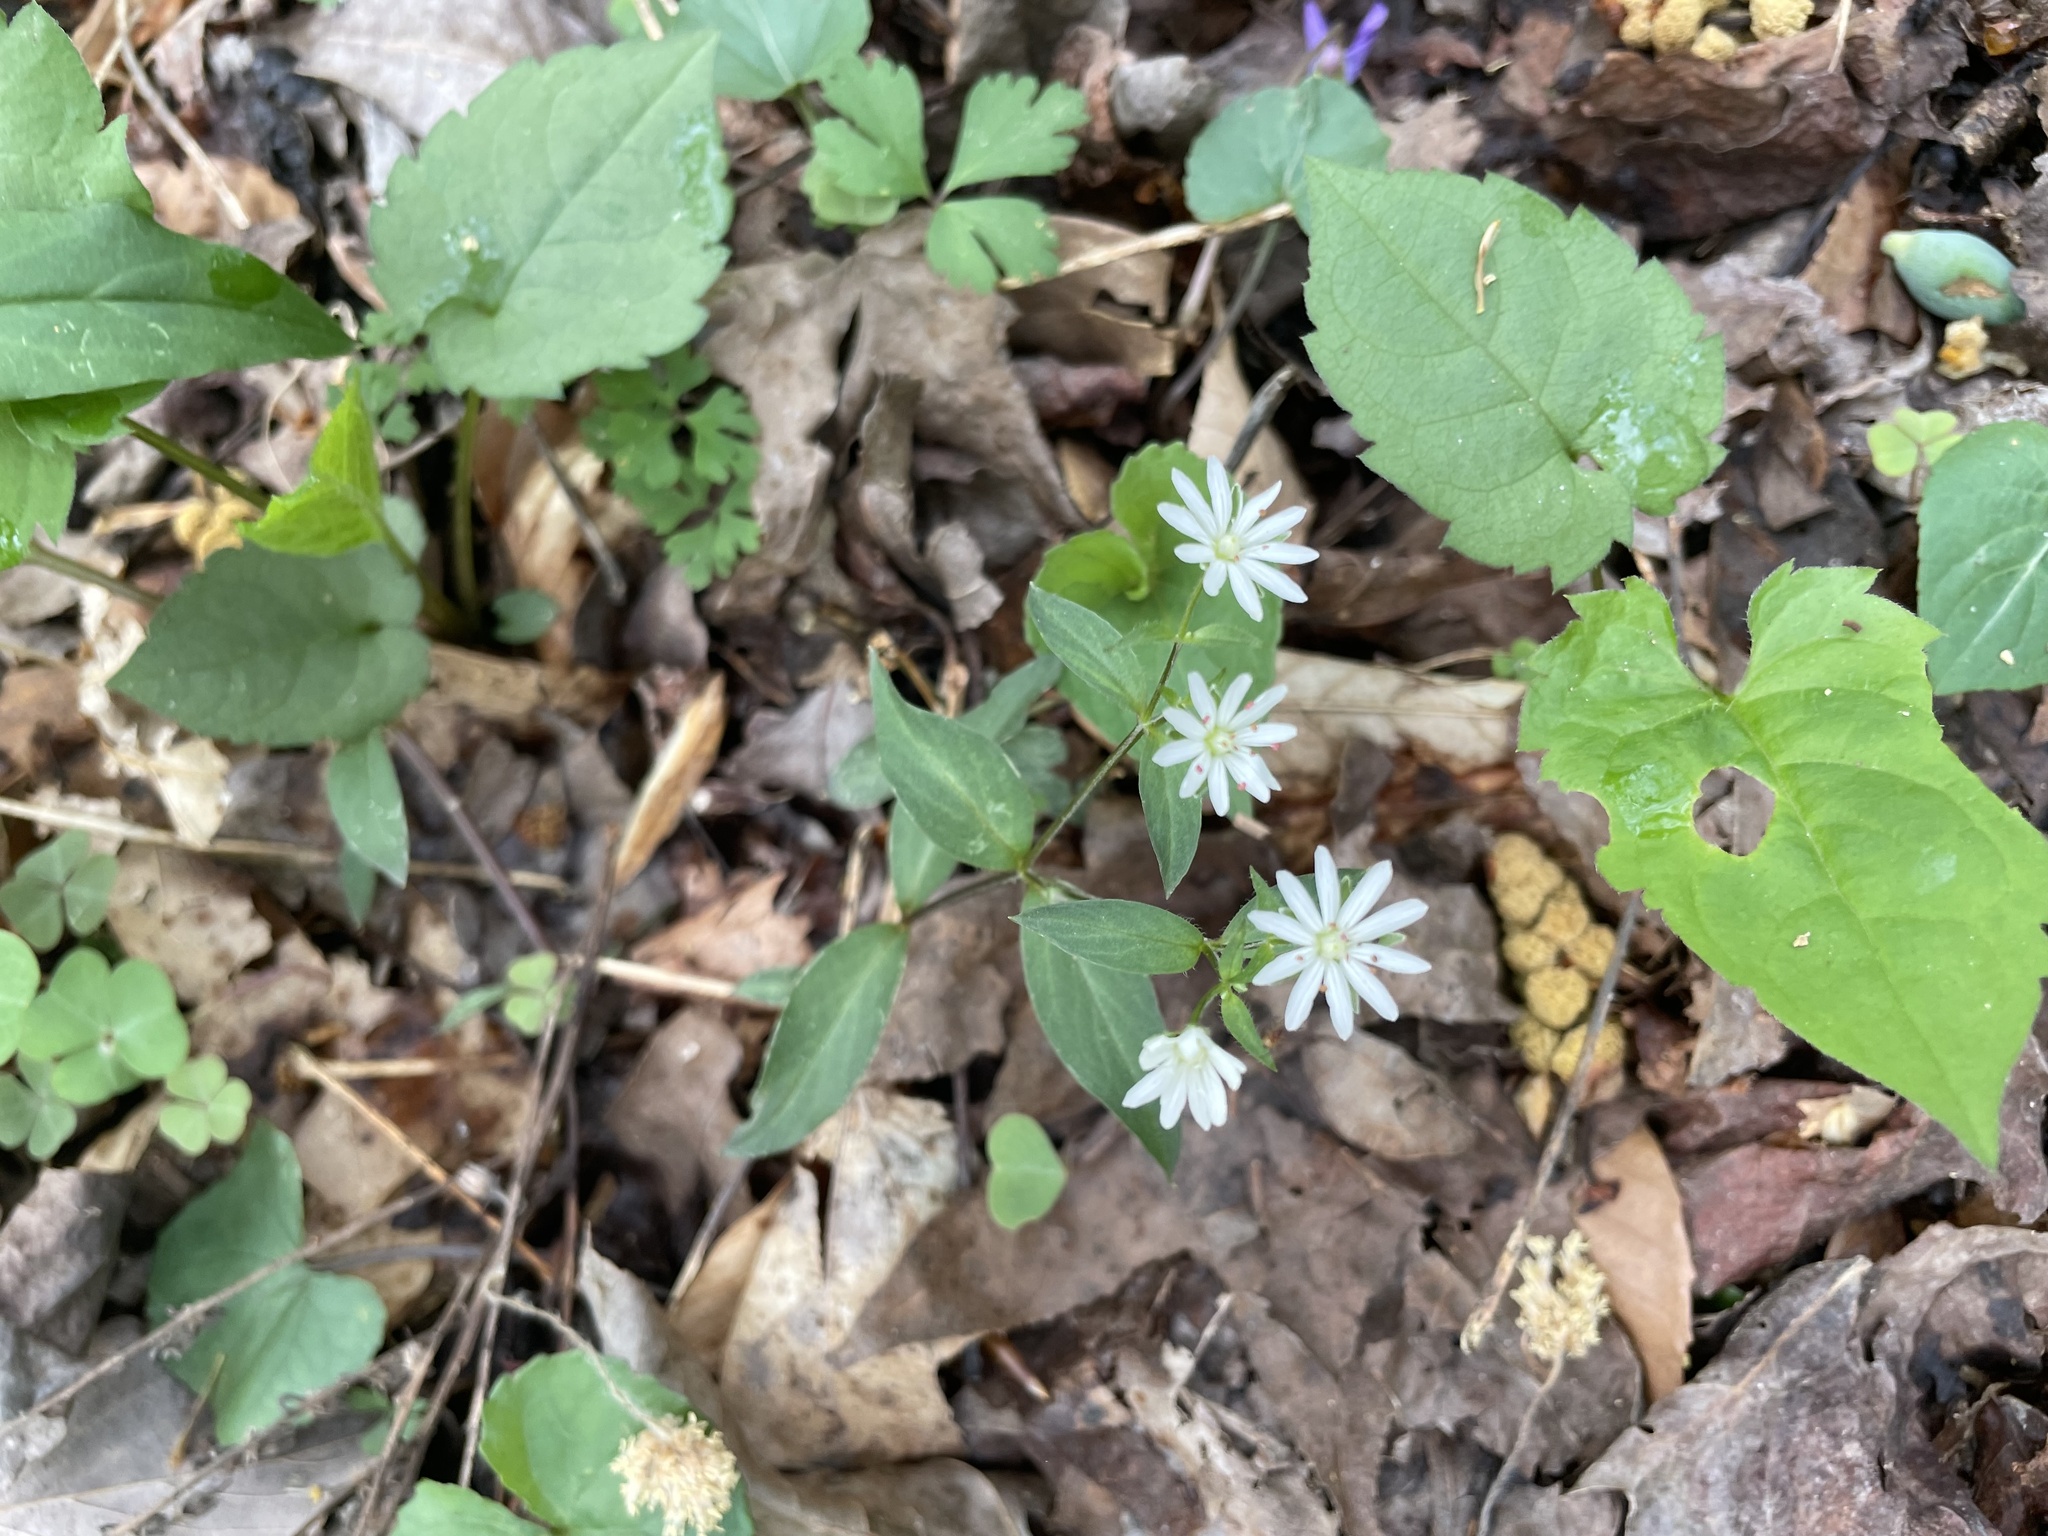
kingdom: Plantae
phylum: Tracheophyta
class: Magnoliopsida
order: Caryophyllales
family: Caryophyllaceae
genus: Stellaria
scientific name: Stellaria pubera
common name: Star chickweed
